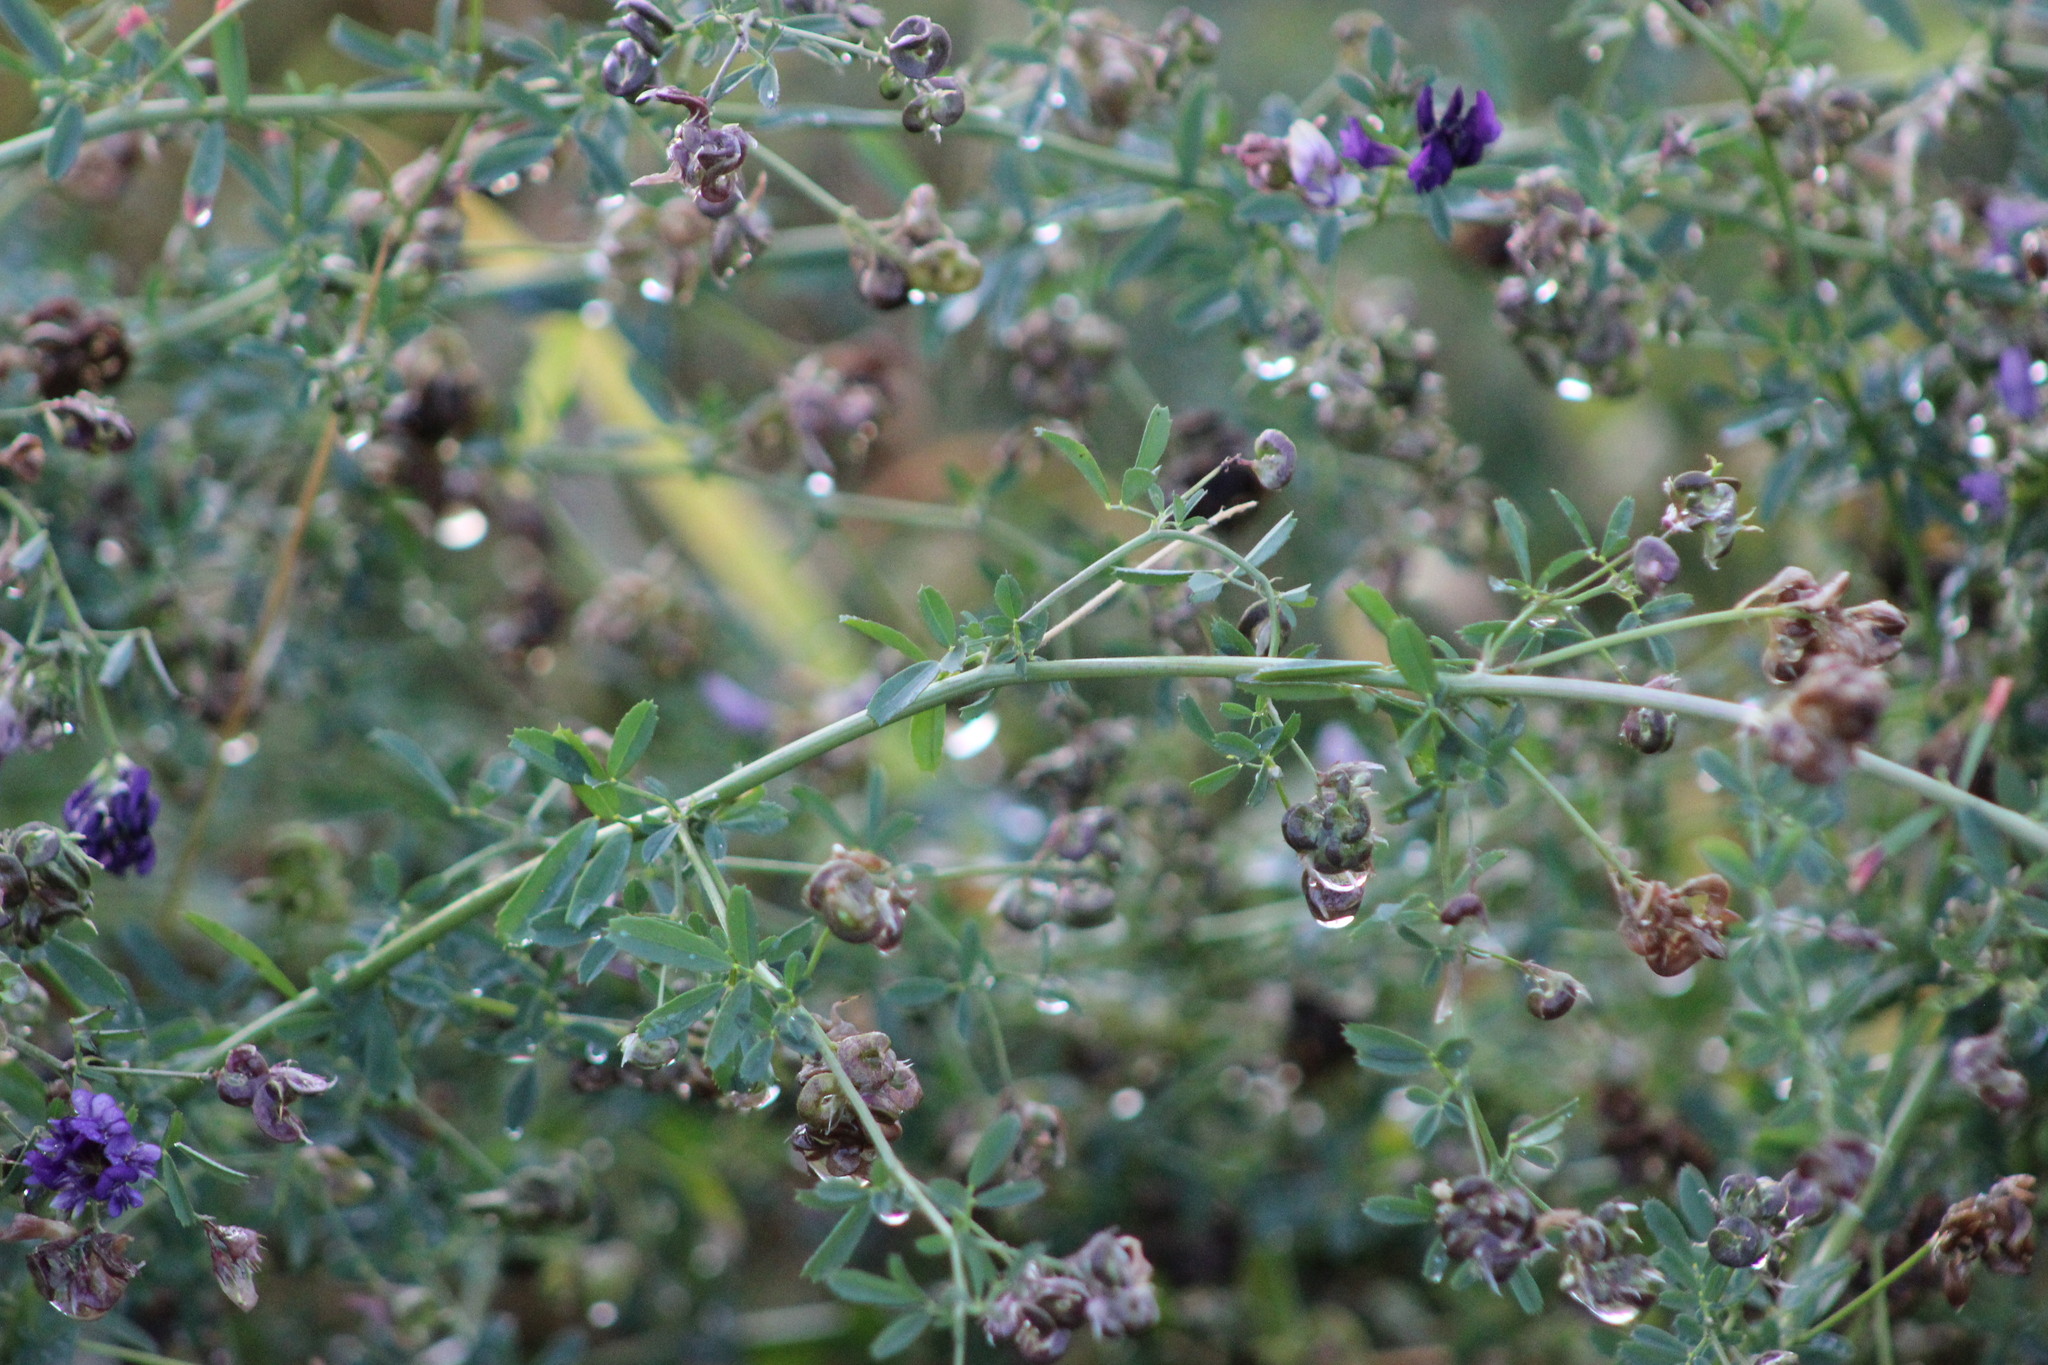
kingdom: Plantae
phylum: Tracheophyta
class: Magnoliopsida
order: Fabales
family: Fabaceae
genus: Medicago
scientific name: Medicago varia
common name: Sand lucerne
